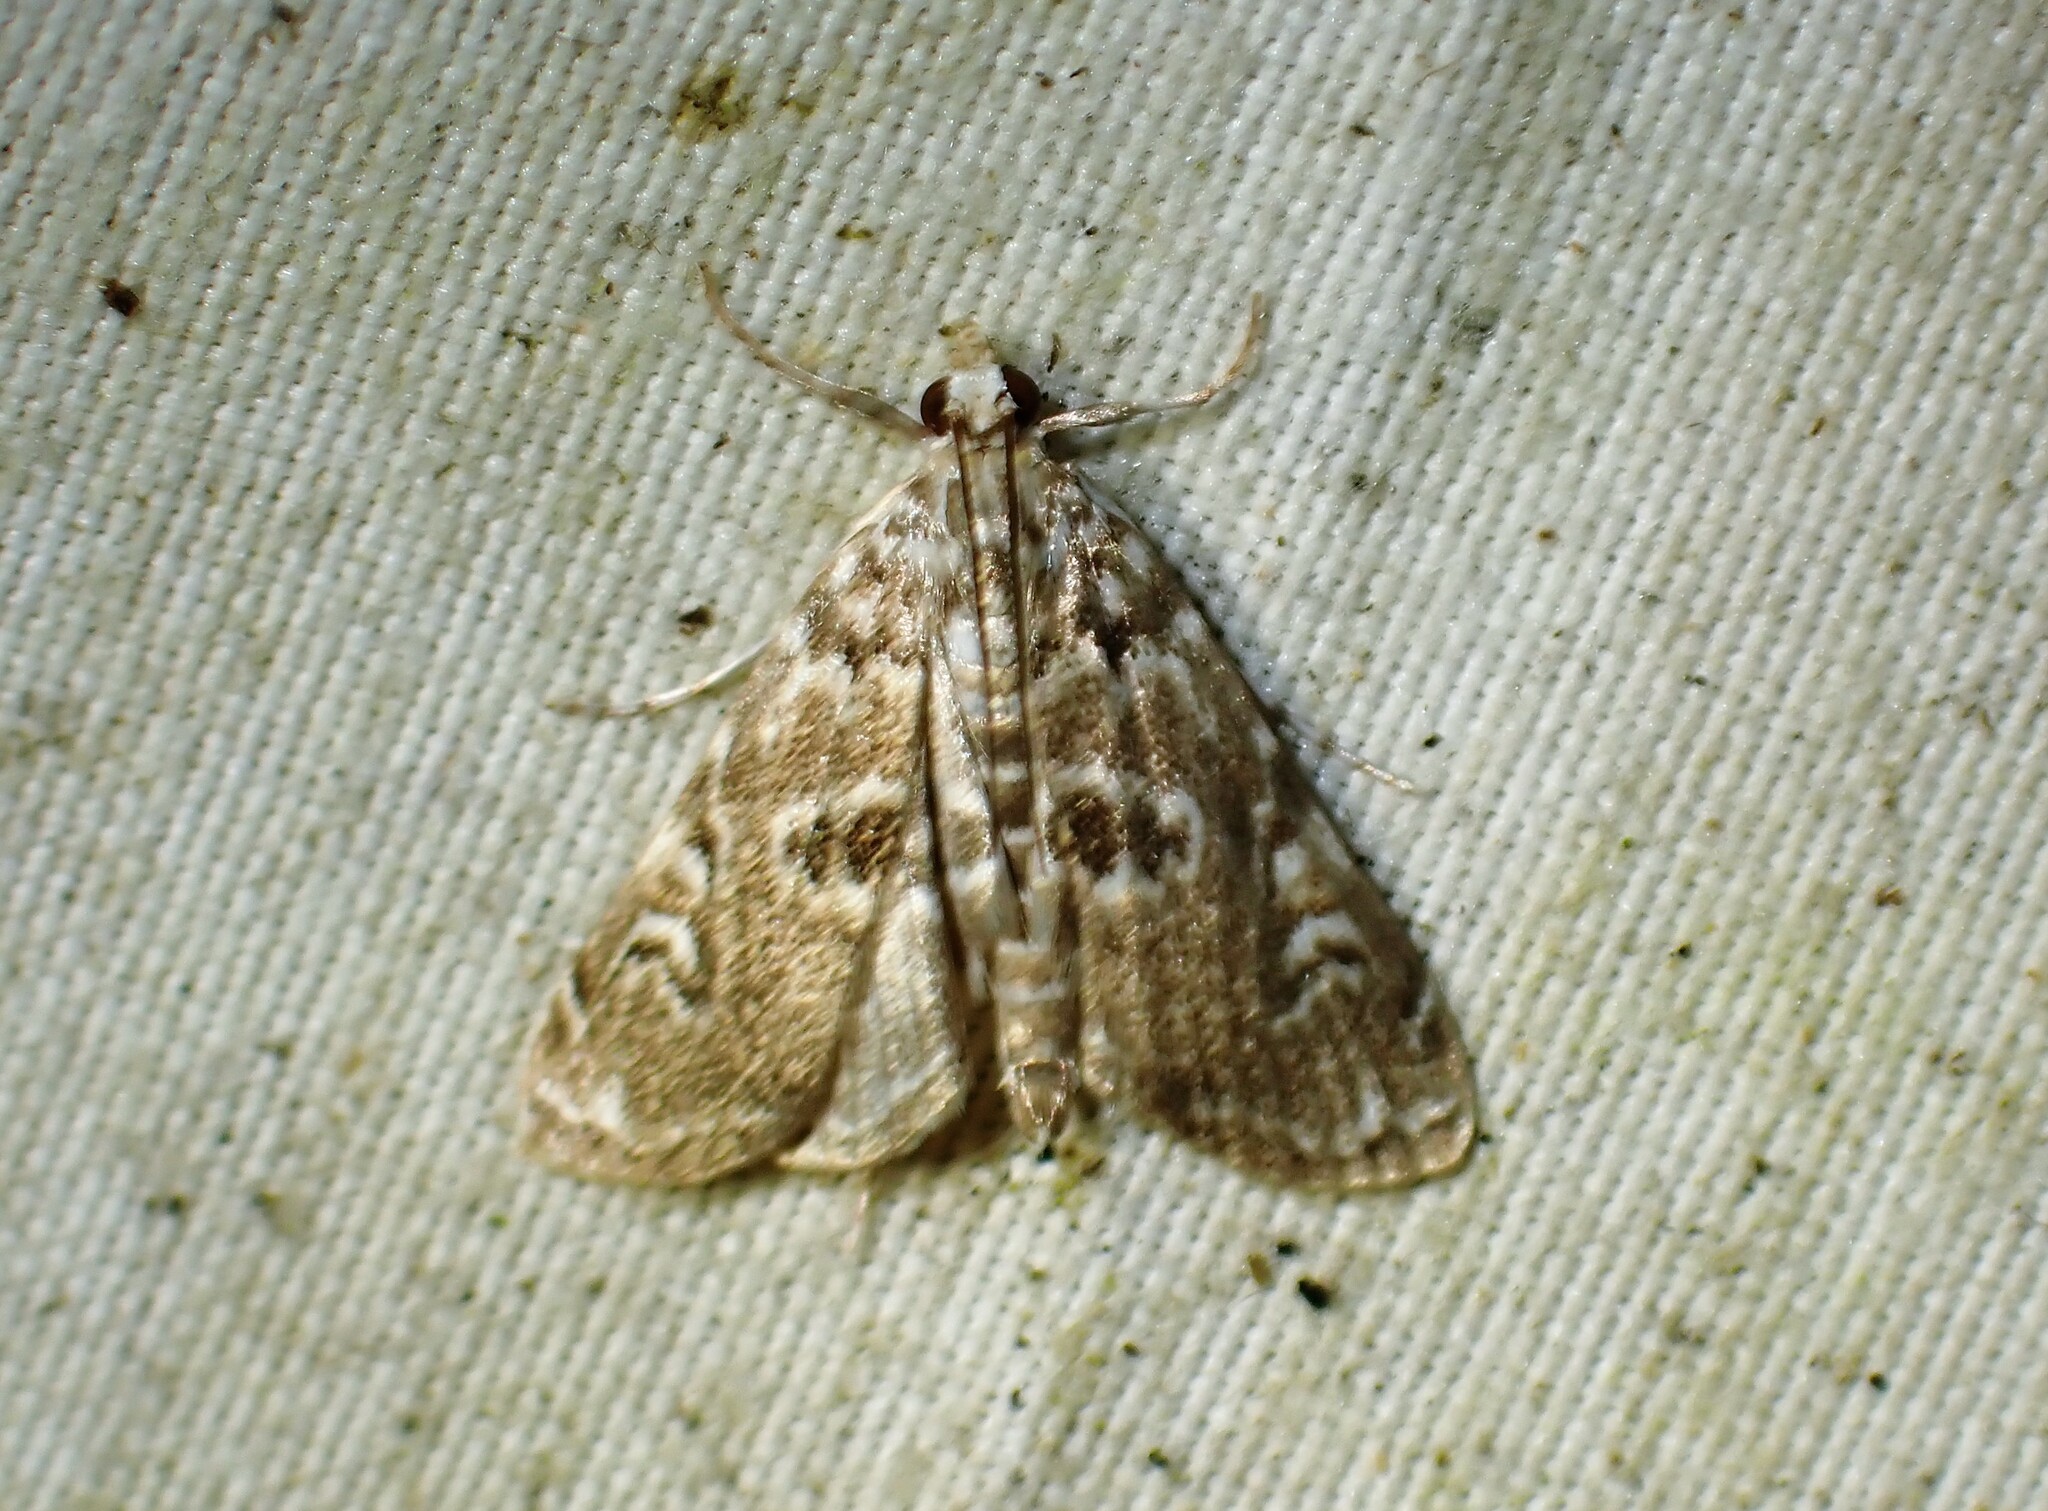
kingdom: Animalia
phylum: Arthropoda
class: Insecta
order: Lepidoptera
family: Crambidae
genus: Elophila
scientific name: Elophila gyralis
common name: Waterlily borer moth
